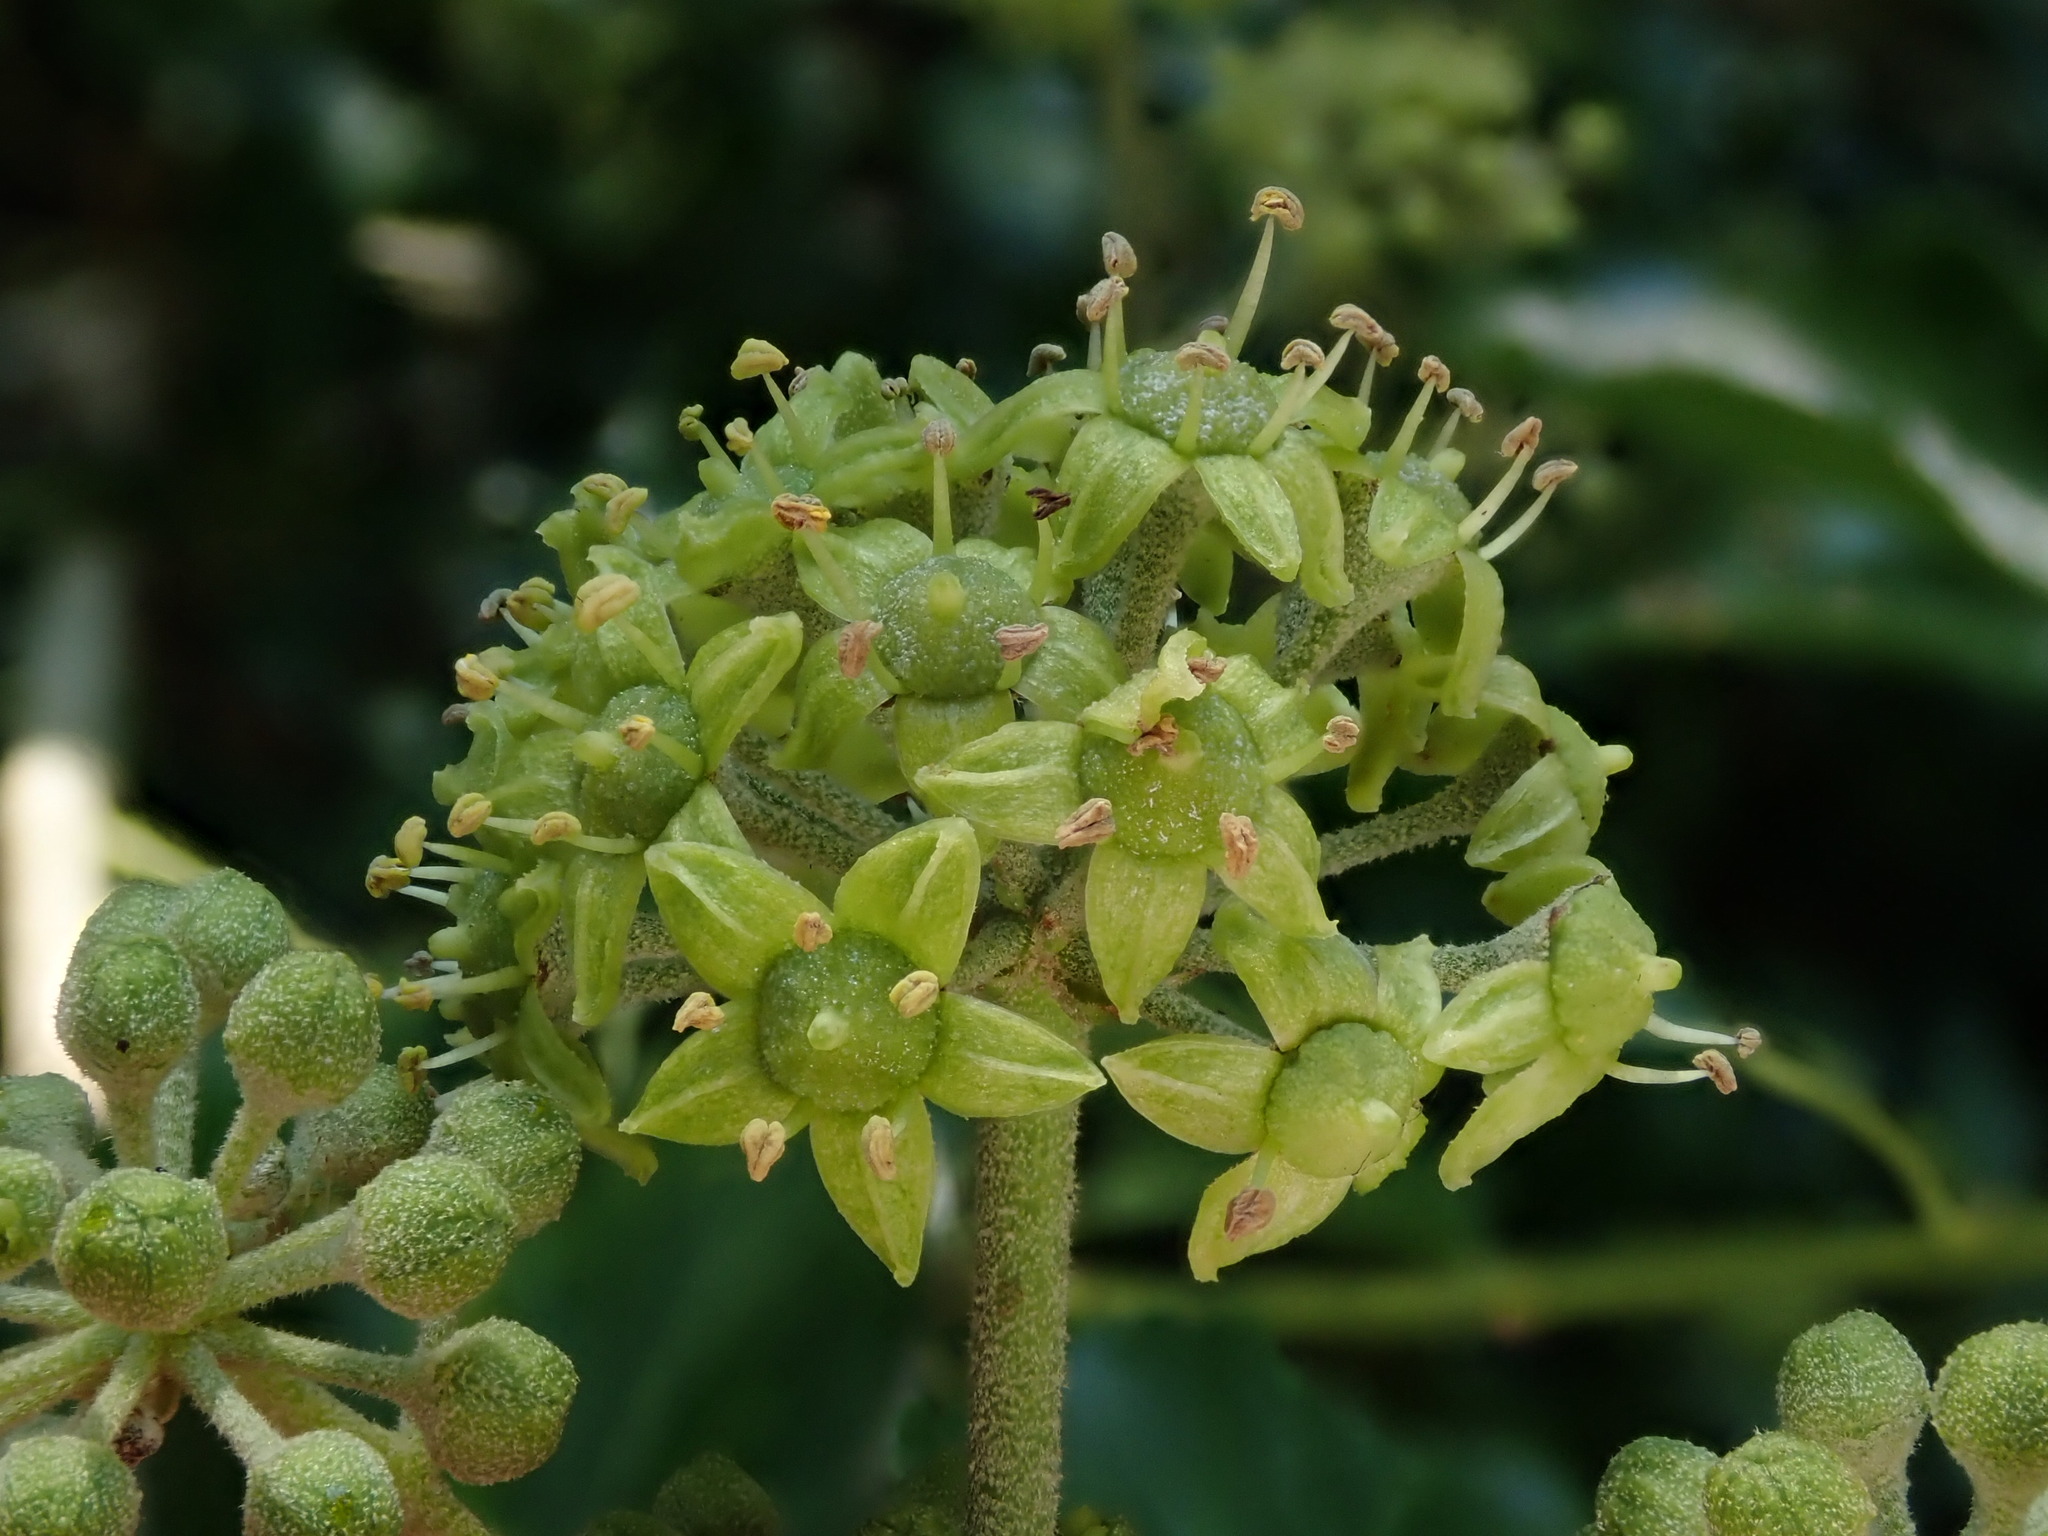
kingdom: Plantae
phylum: Tracheophyta
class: Magnoliopsida
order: Apiales
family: Araliaceae
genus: Hedera
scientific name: Hedera helix
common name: Ivy
